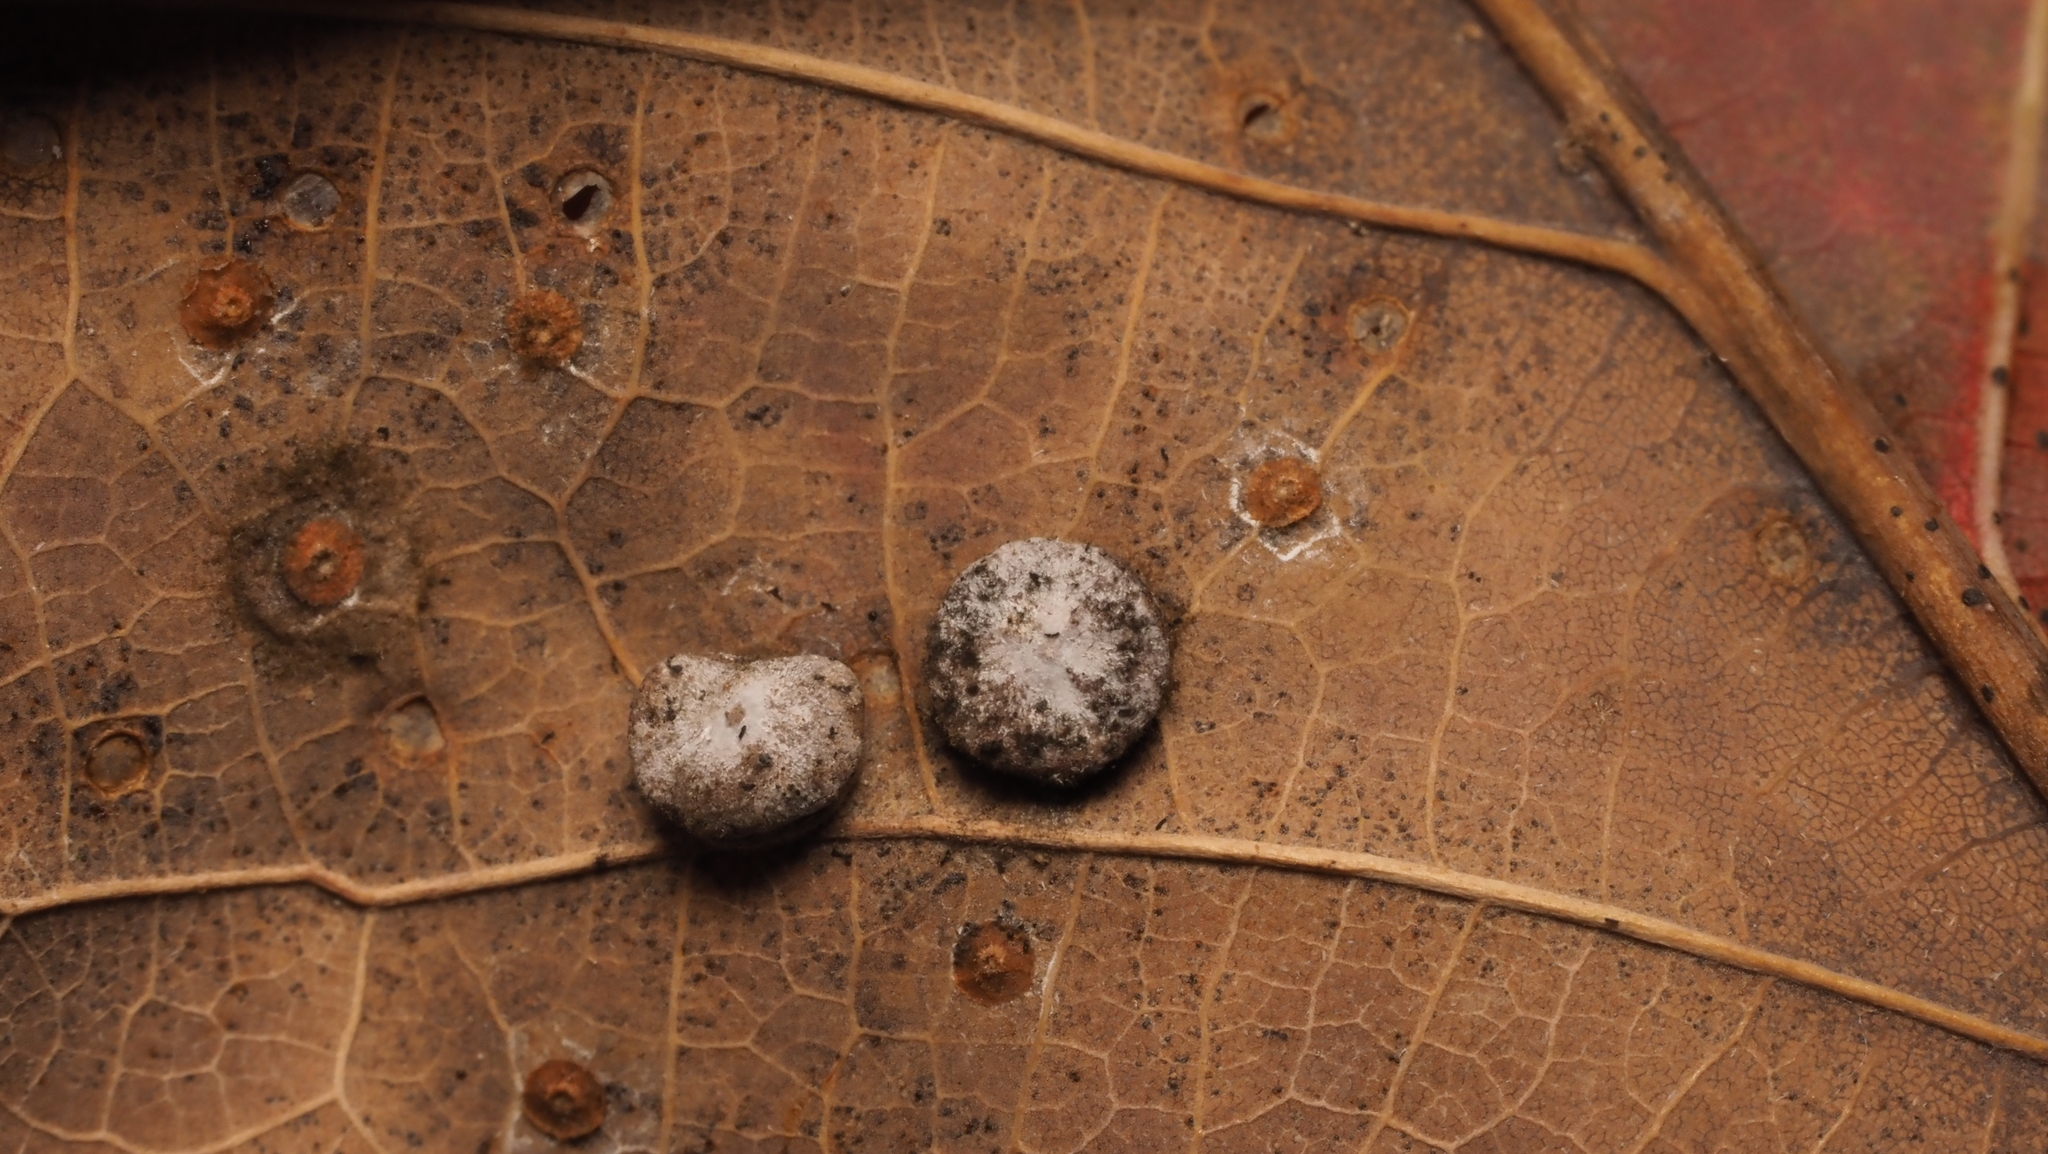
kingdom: Animalia
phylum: Arthropoda
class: Insecta
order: Hymenoptera
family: Cynipidae
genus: Phylloteras
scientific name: Phylloteras poculum
